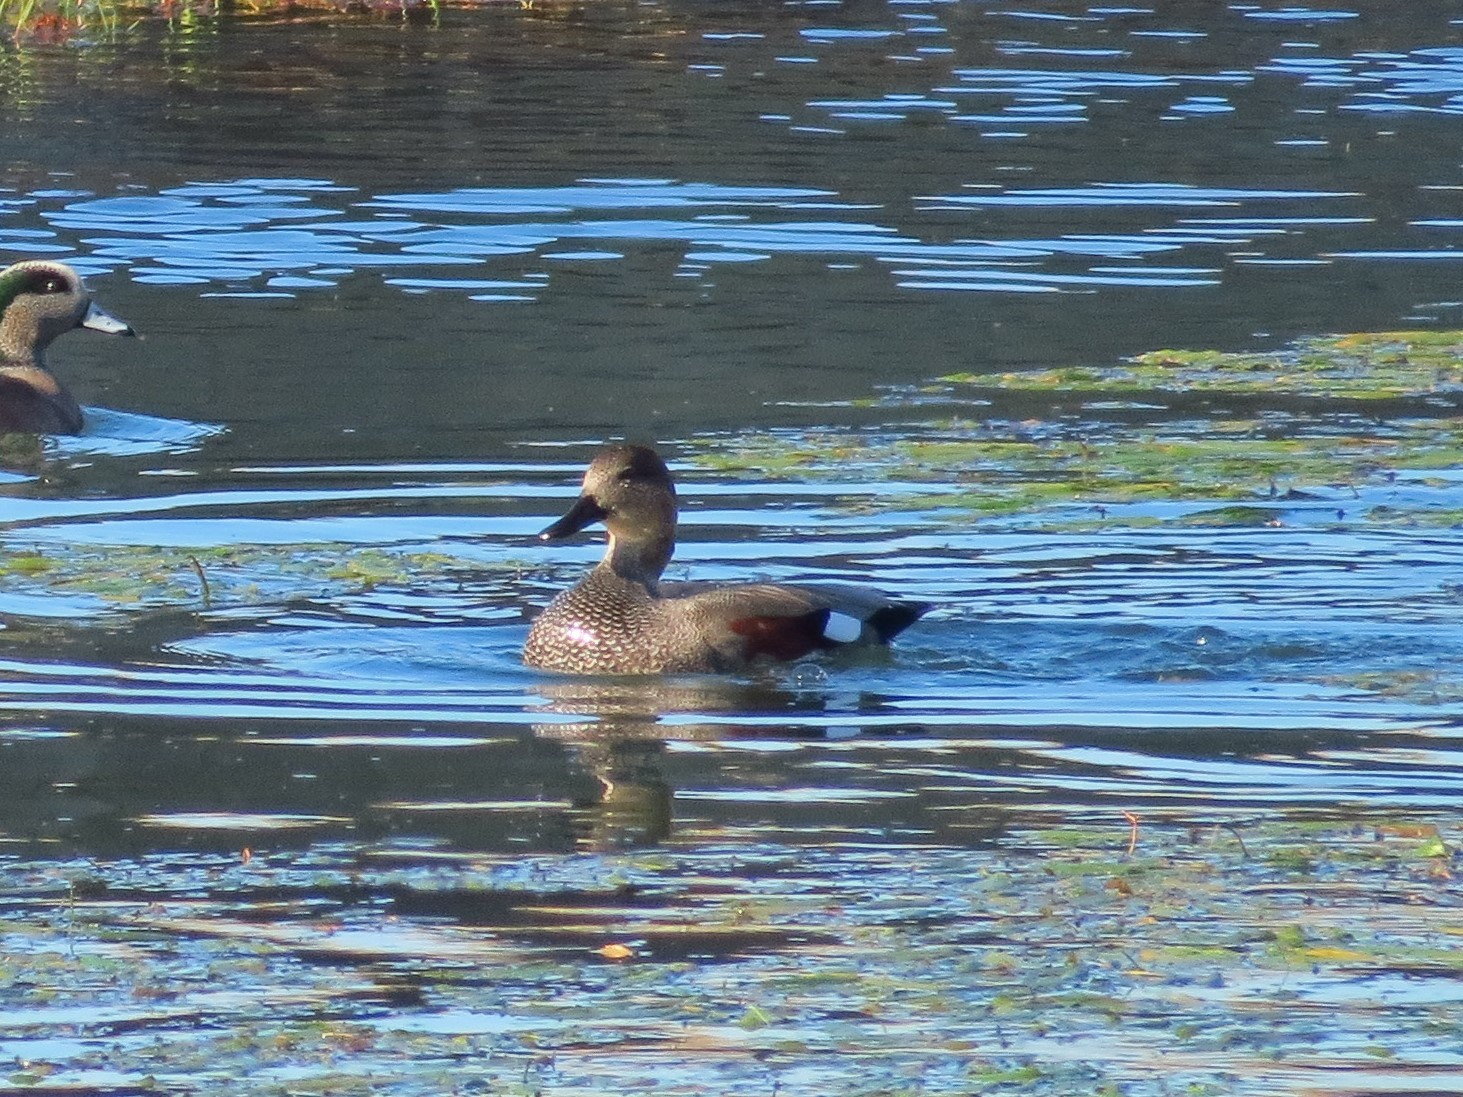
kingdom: Animalia
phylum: Chordata
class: Aves
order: Anseriformes
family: Anatidae
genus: Mareca
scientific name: Mareca strepera
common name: Gadwall
